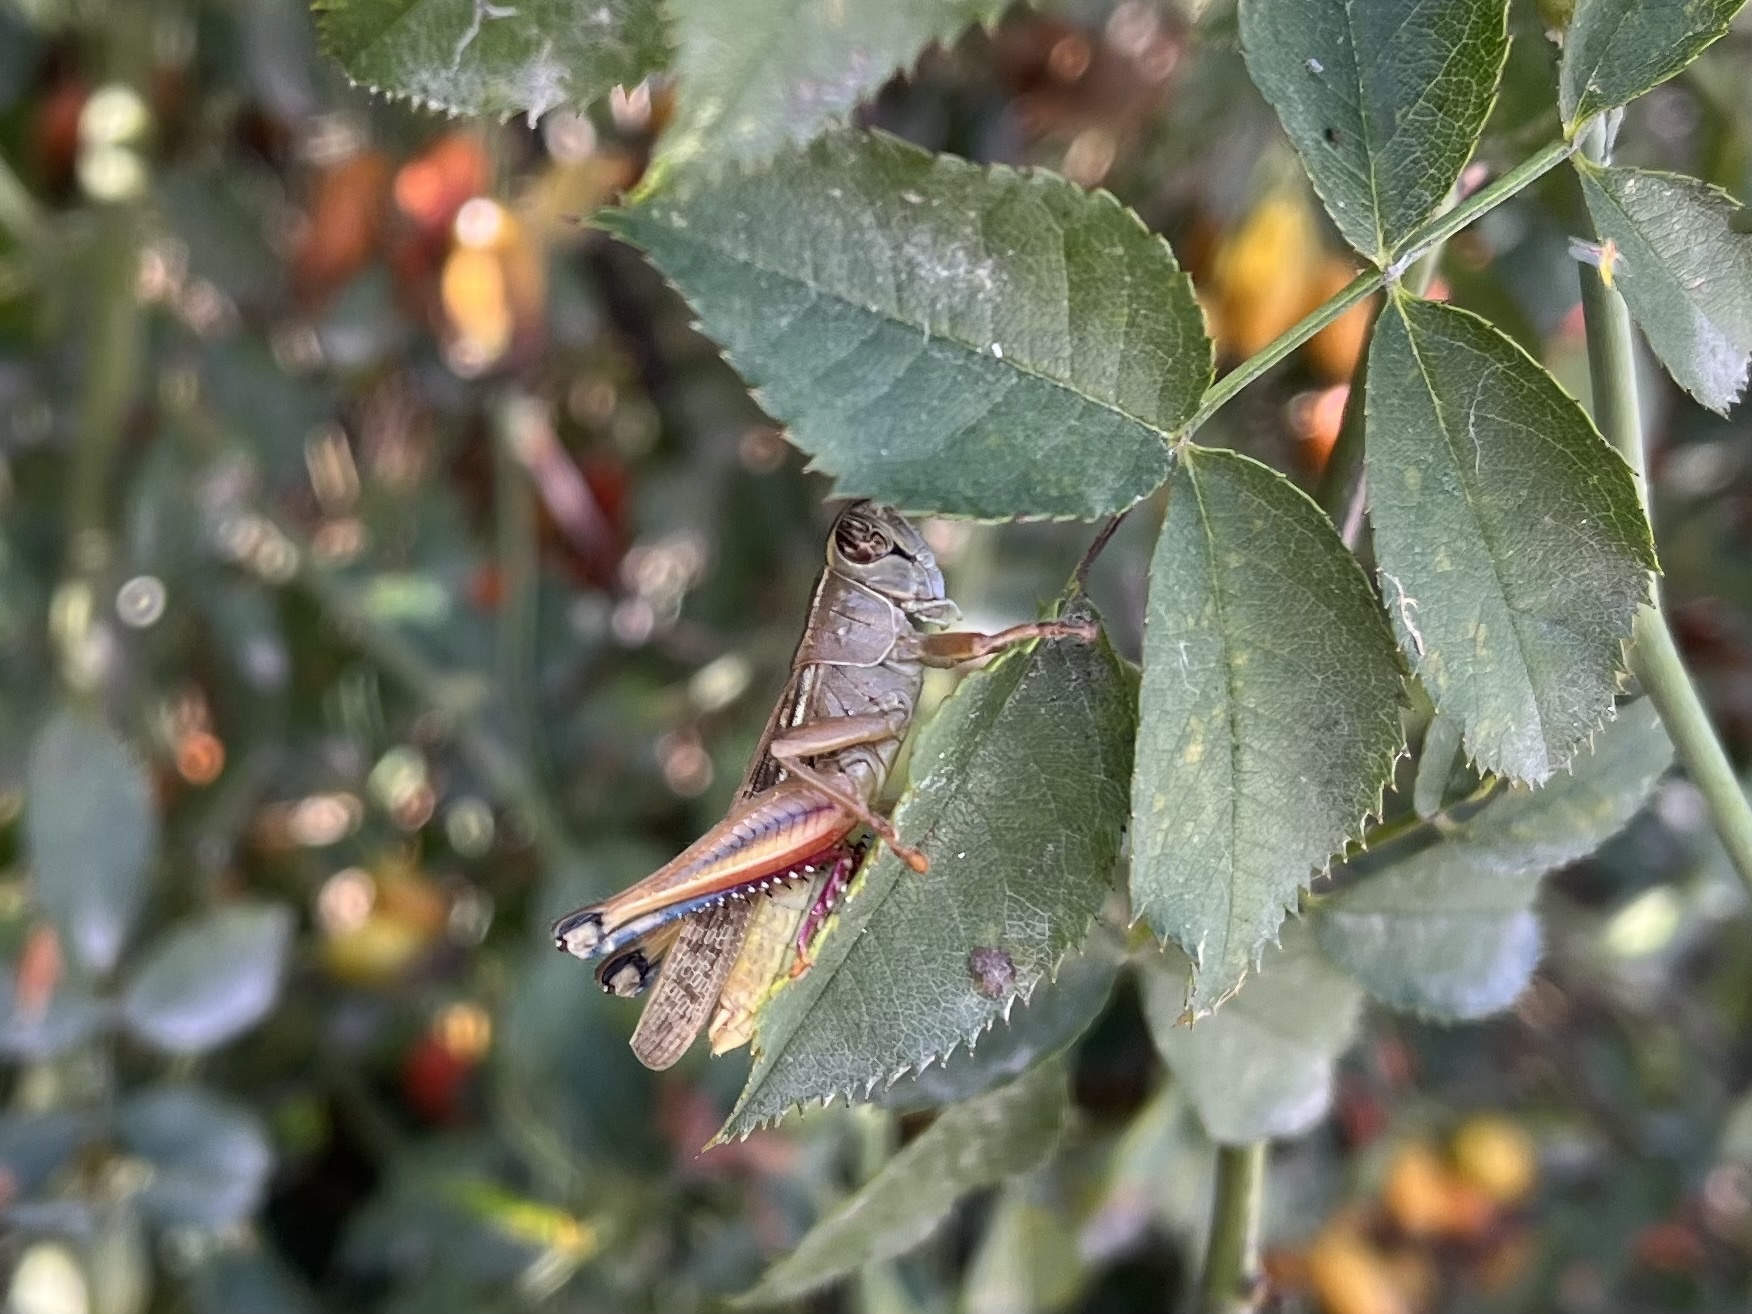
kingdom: Animalia
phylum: Arthropoda
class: Insecta
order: Orthoptera
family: Acrididae
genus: Eyprepocnemis
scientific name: Eyprepocnemis plorans
